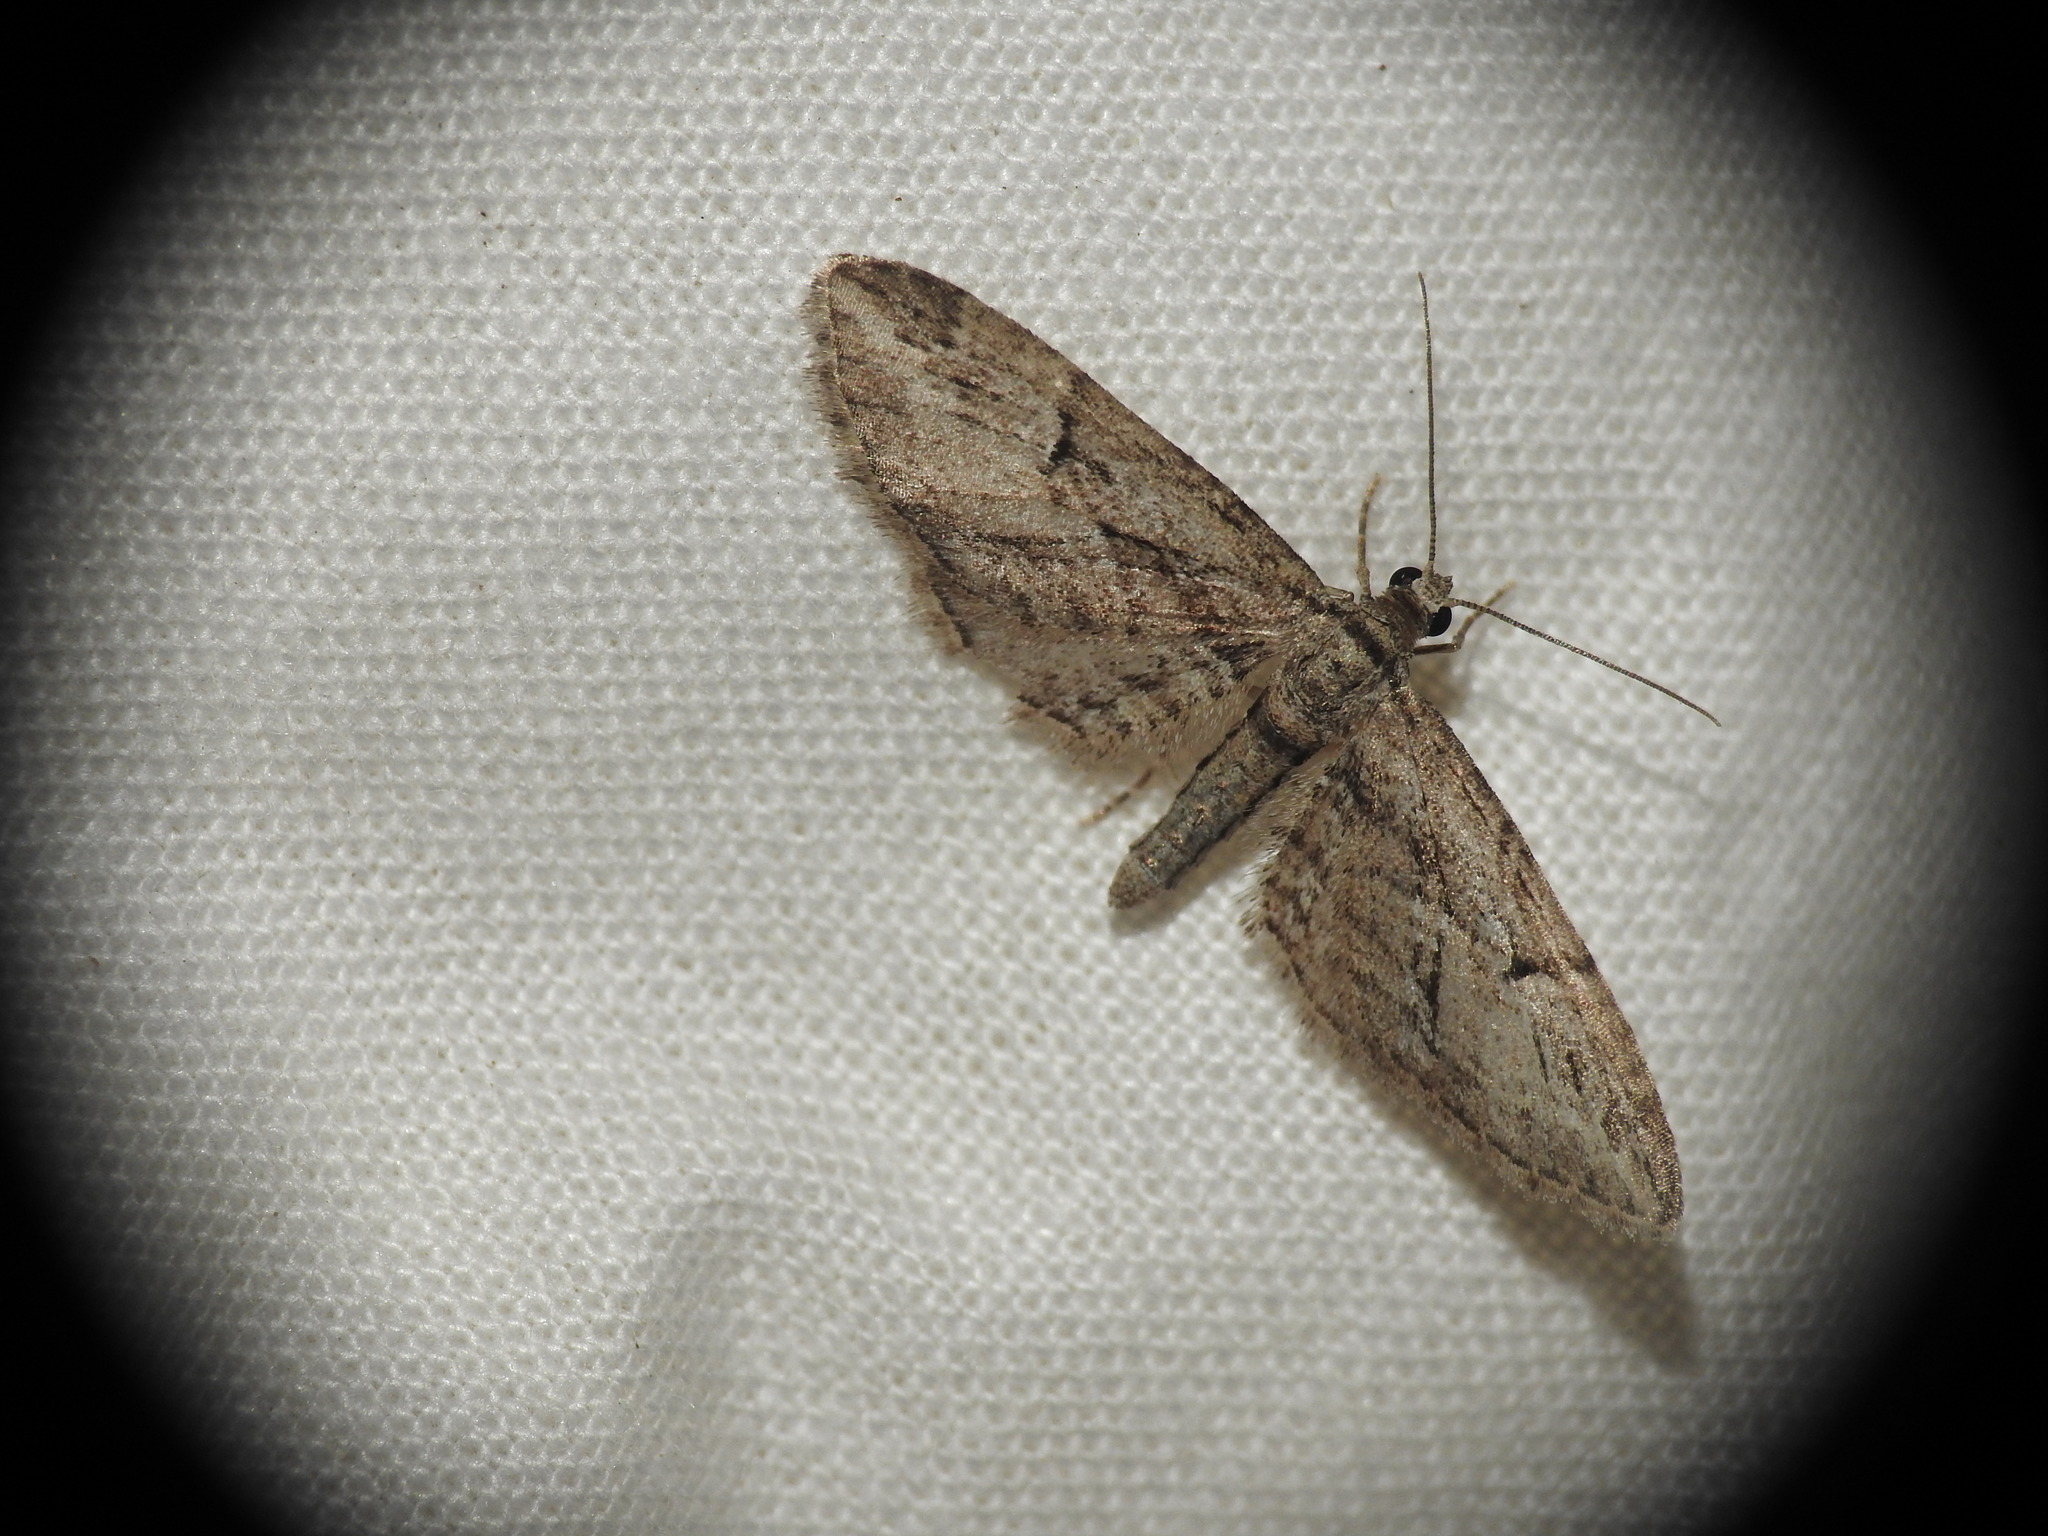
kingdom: Animalia
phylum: Arthropoda
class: Insecta
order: Lepidoptera
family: Geometridae
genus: Eupithecia
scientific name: Eupithecia oxycedrata
